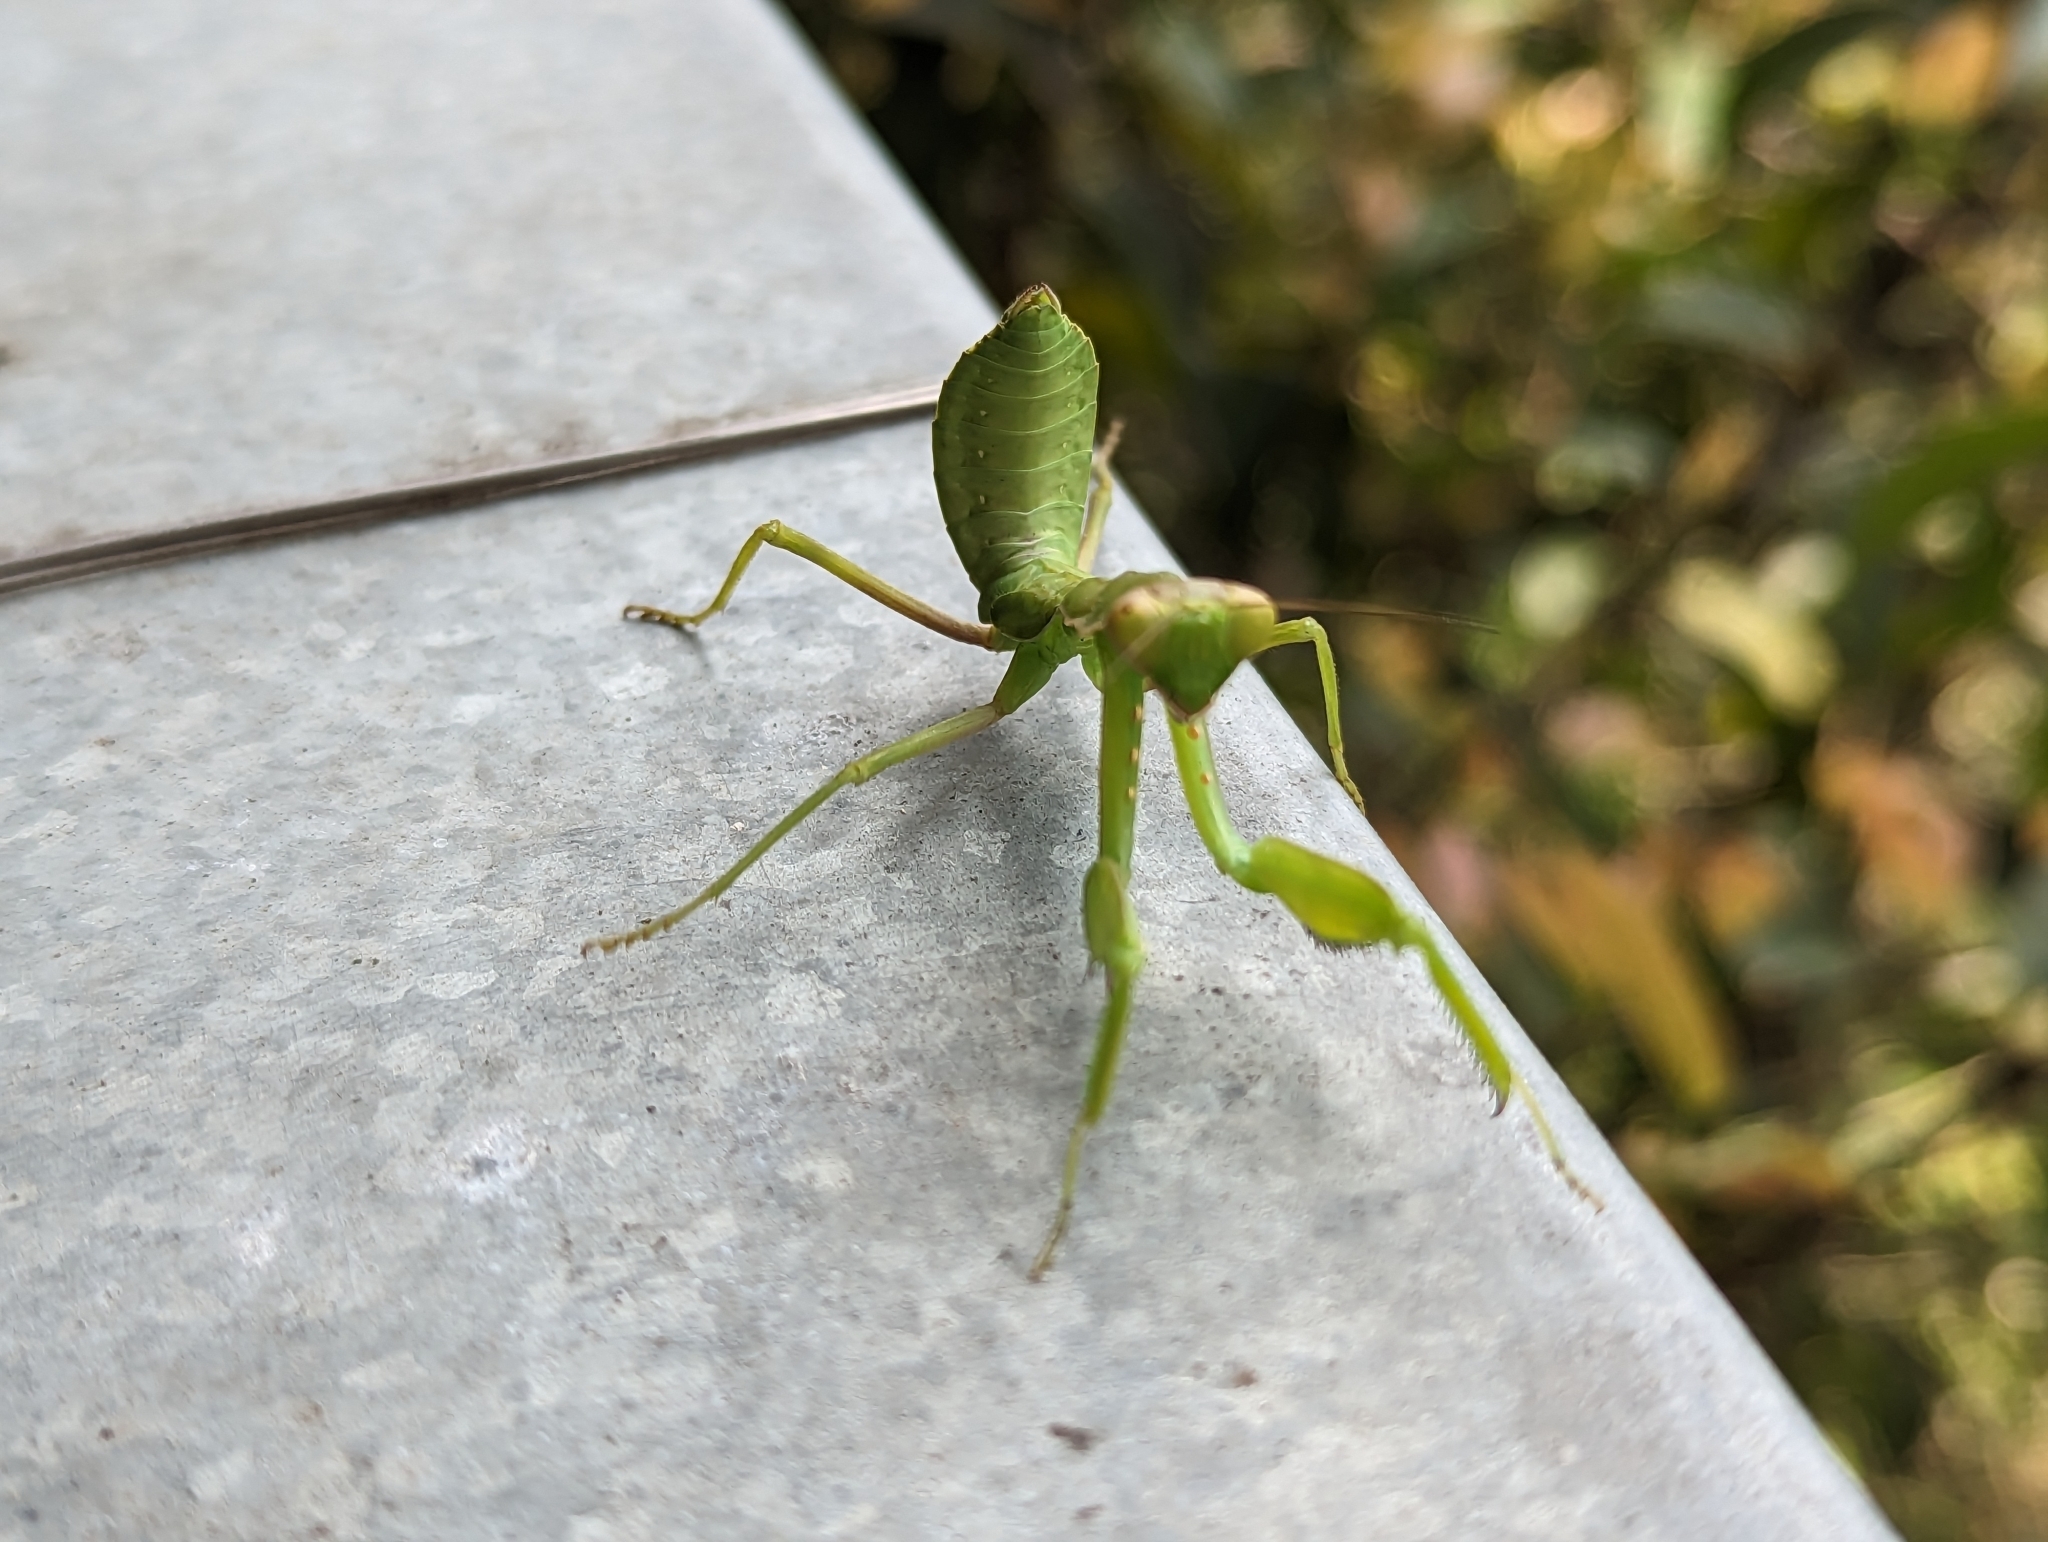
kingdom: Animalia
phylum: Arthropoda
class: Insecta
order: Mantodea
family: Mantidae
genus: Hierodula
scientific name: Hierodula patellifera
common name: Asian mantis
